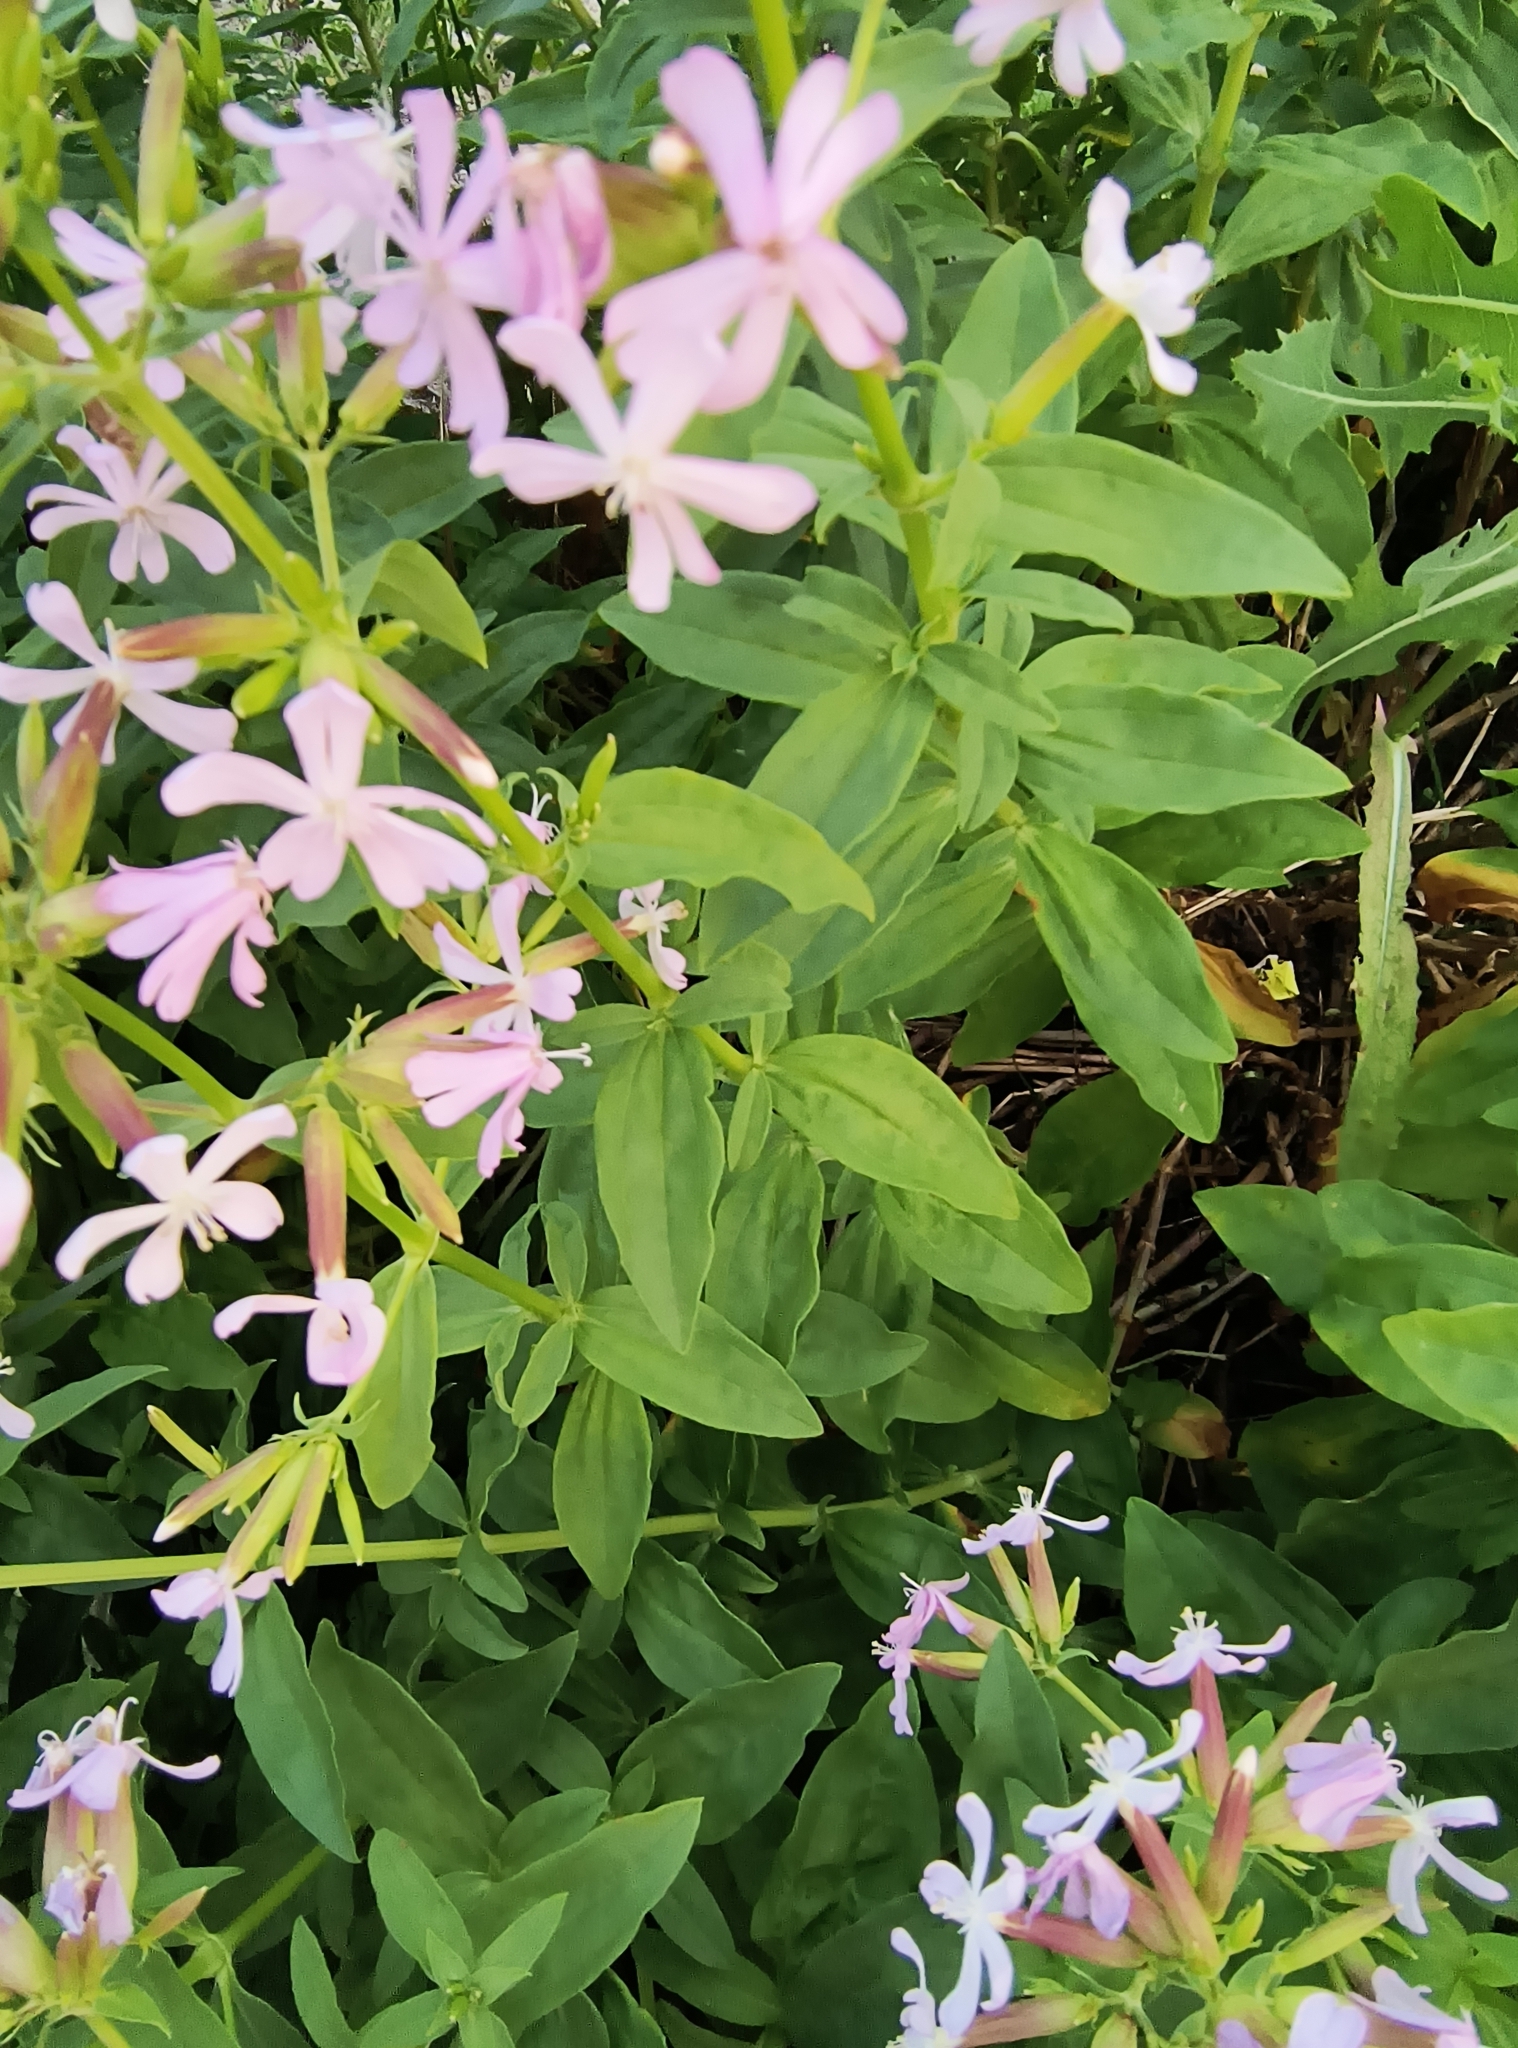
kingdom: Plantae
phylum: Tracheophyta
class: Magnoliopsida
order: Caryophyllales
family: Caryophyllaceae
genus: Saponaria
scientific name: Saponaria officinalis
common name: Soapwort
